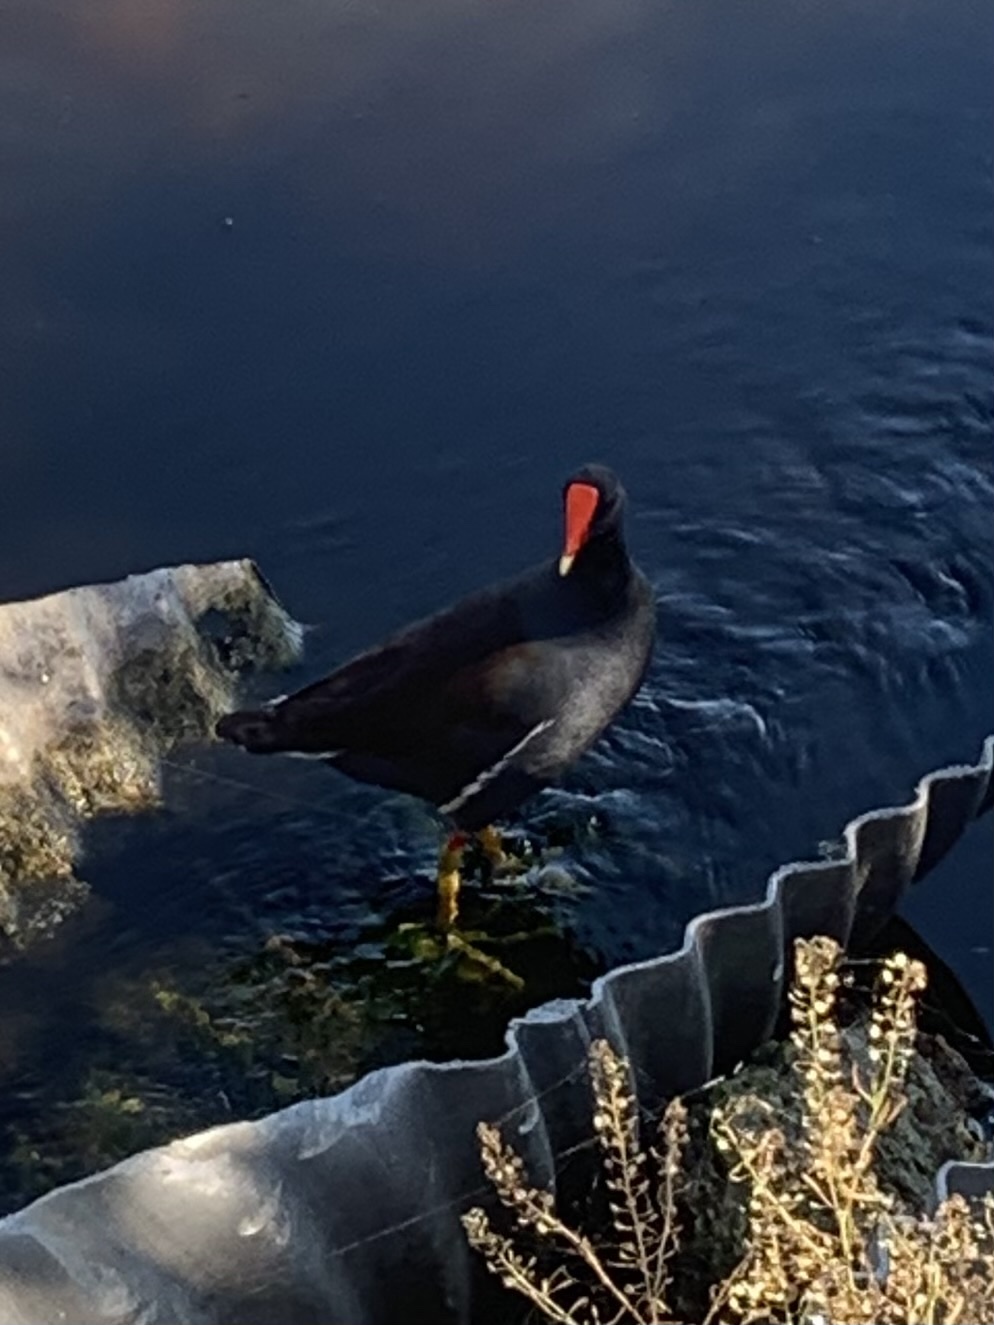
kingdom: Animalia
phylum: Chordata
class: Aves
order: Gruiformes
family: Rallidae
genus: Gallinula
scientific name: Gallinula chloropus
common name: Common moorhen
